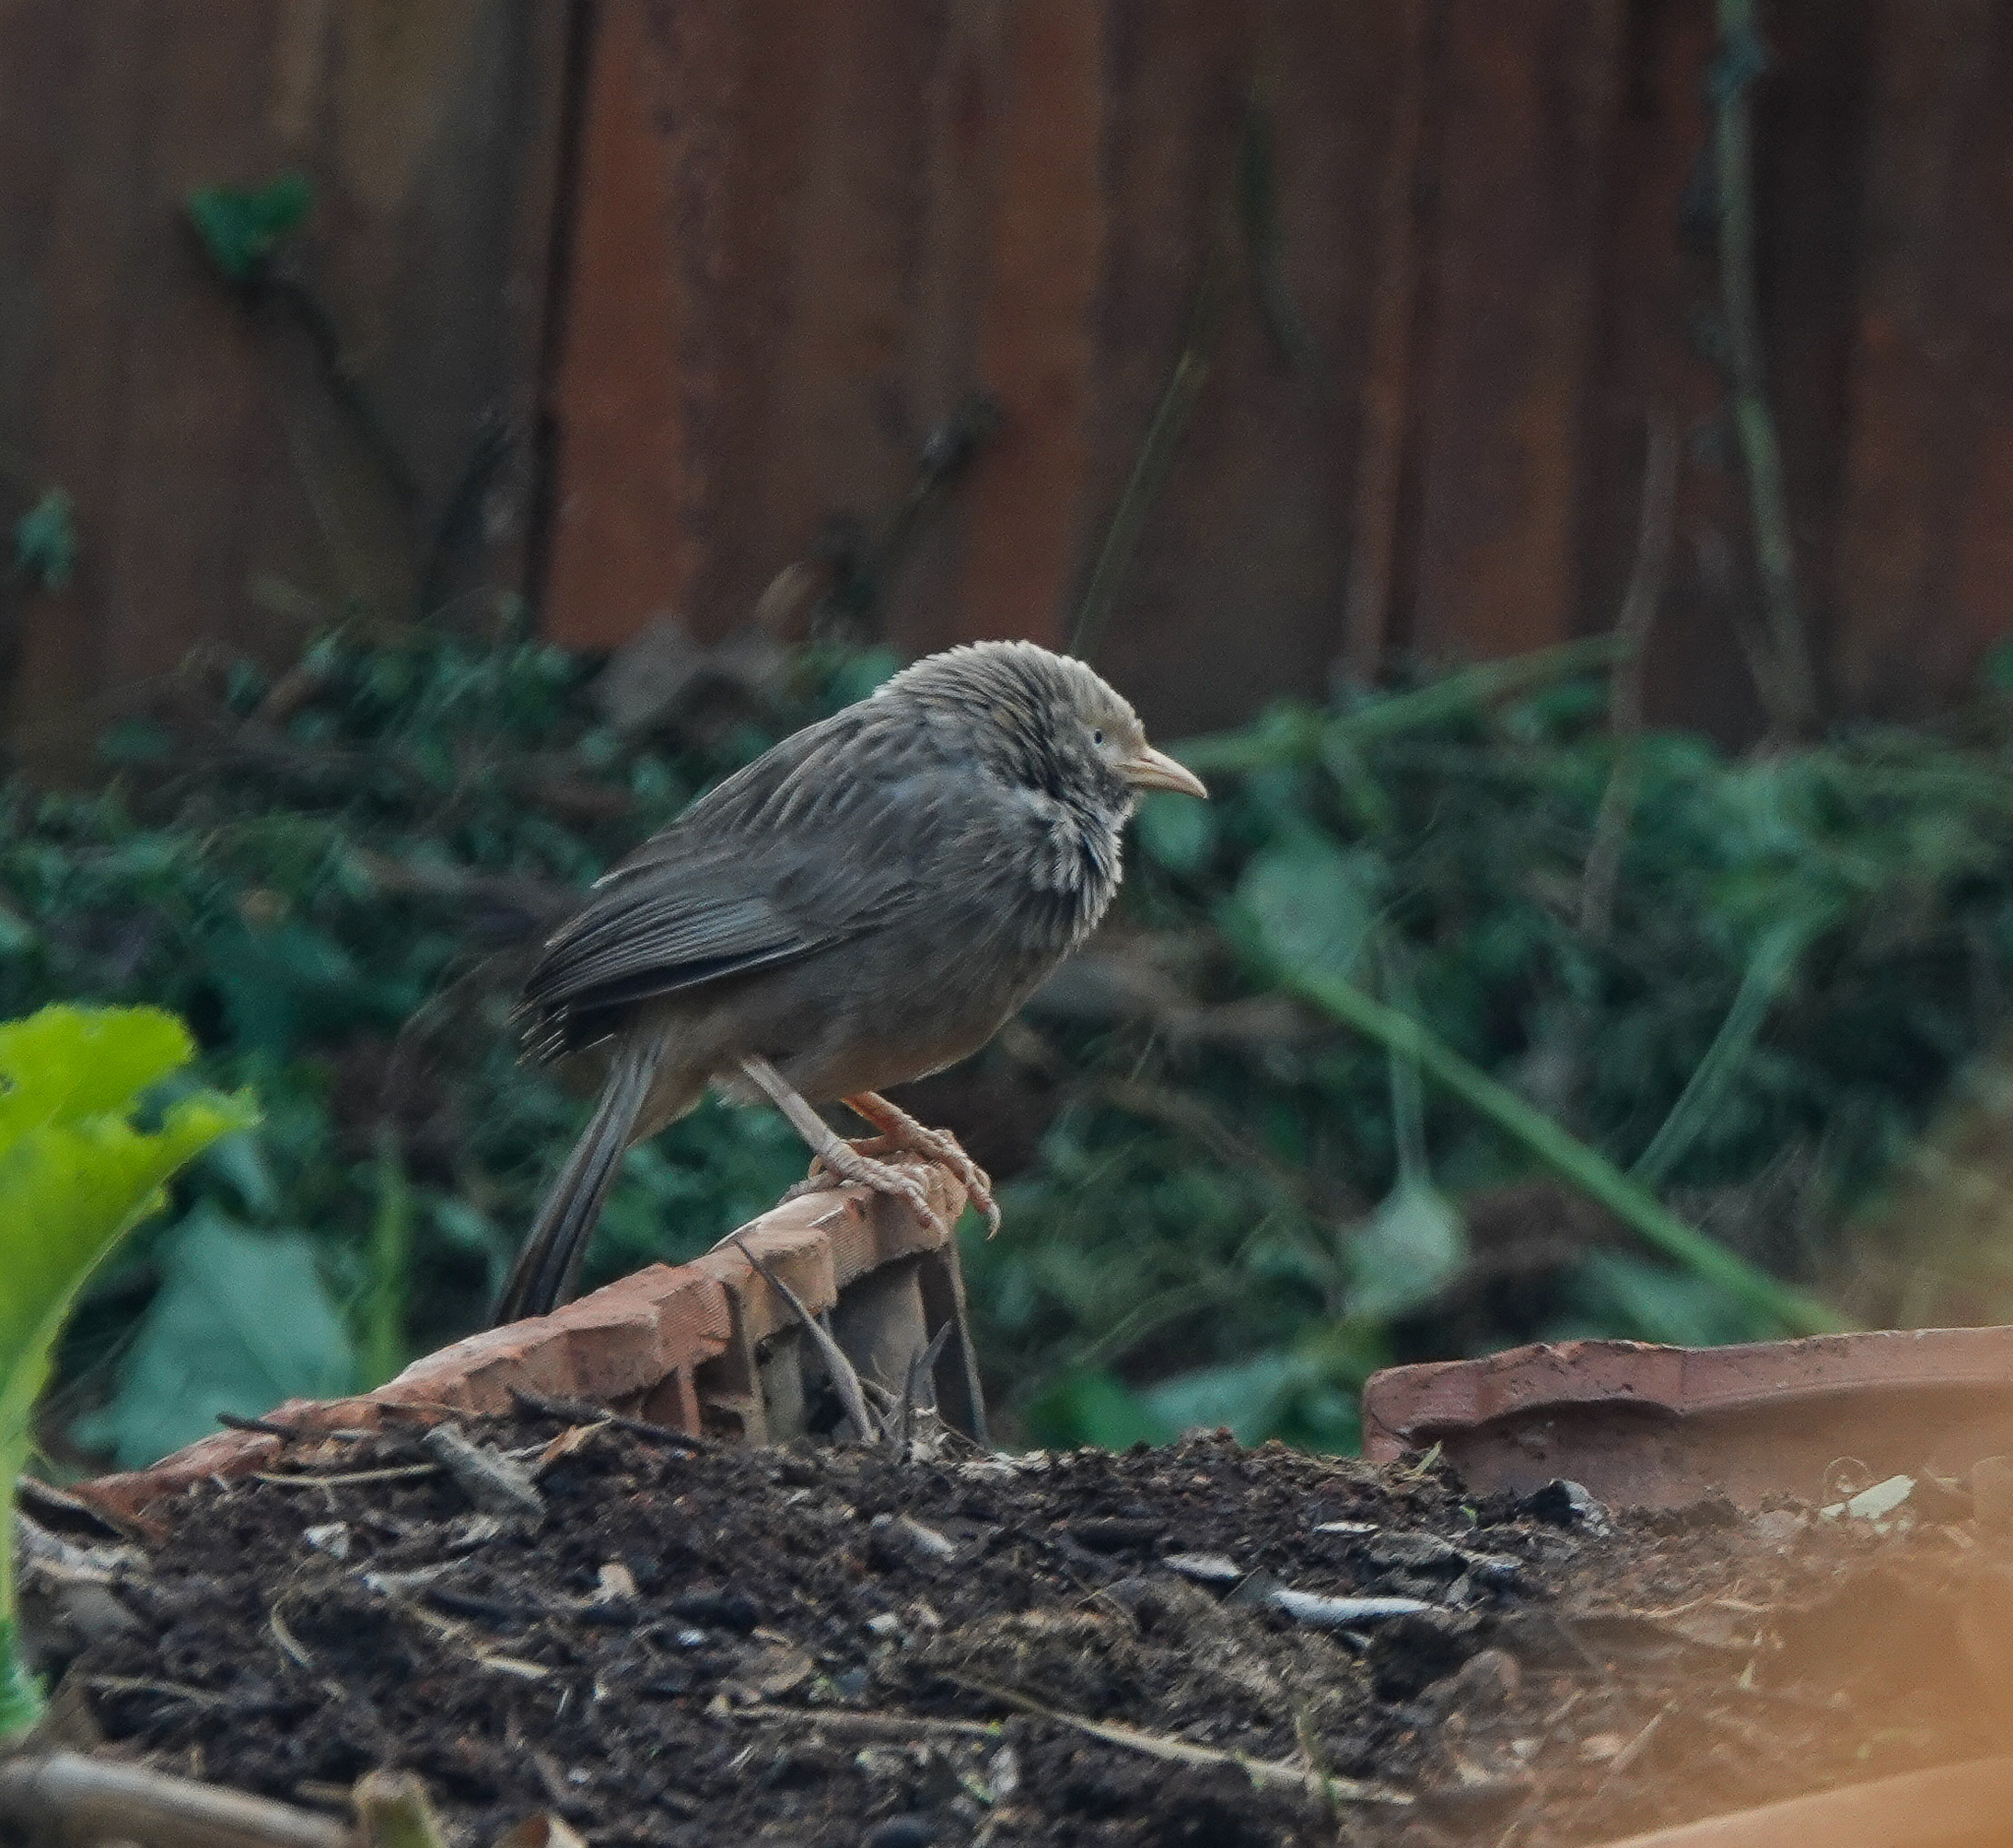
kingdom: Animalia
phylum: Chordata
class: Aves
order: Passeriformes
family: Leiothrichidae
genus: Turdoides
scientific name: Turdoides affinis
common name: Yellow-billed babbler
